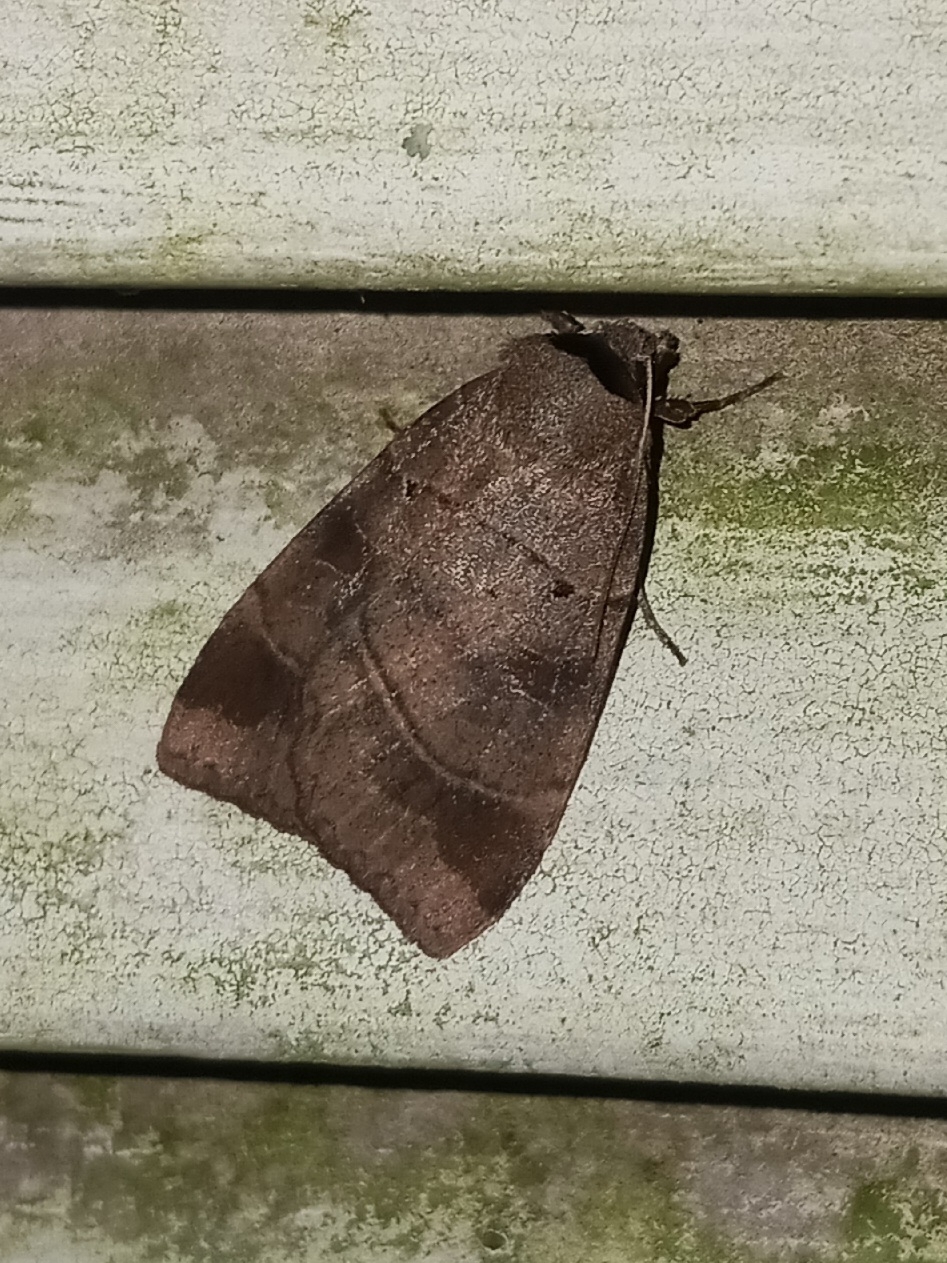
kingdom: Animalia
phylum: Arthropoda
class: Insecta
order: Lepidoptera
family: Noctuidae
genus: Agnorisma
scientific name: Agnorisma badinodis
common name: Pale-banded dart
